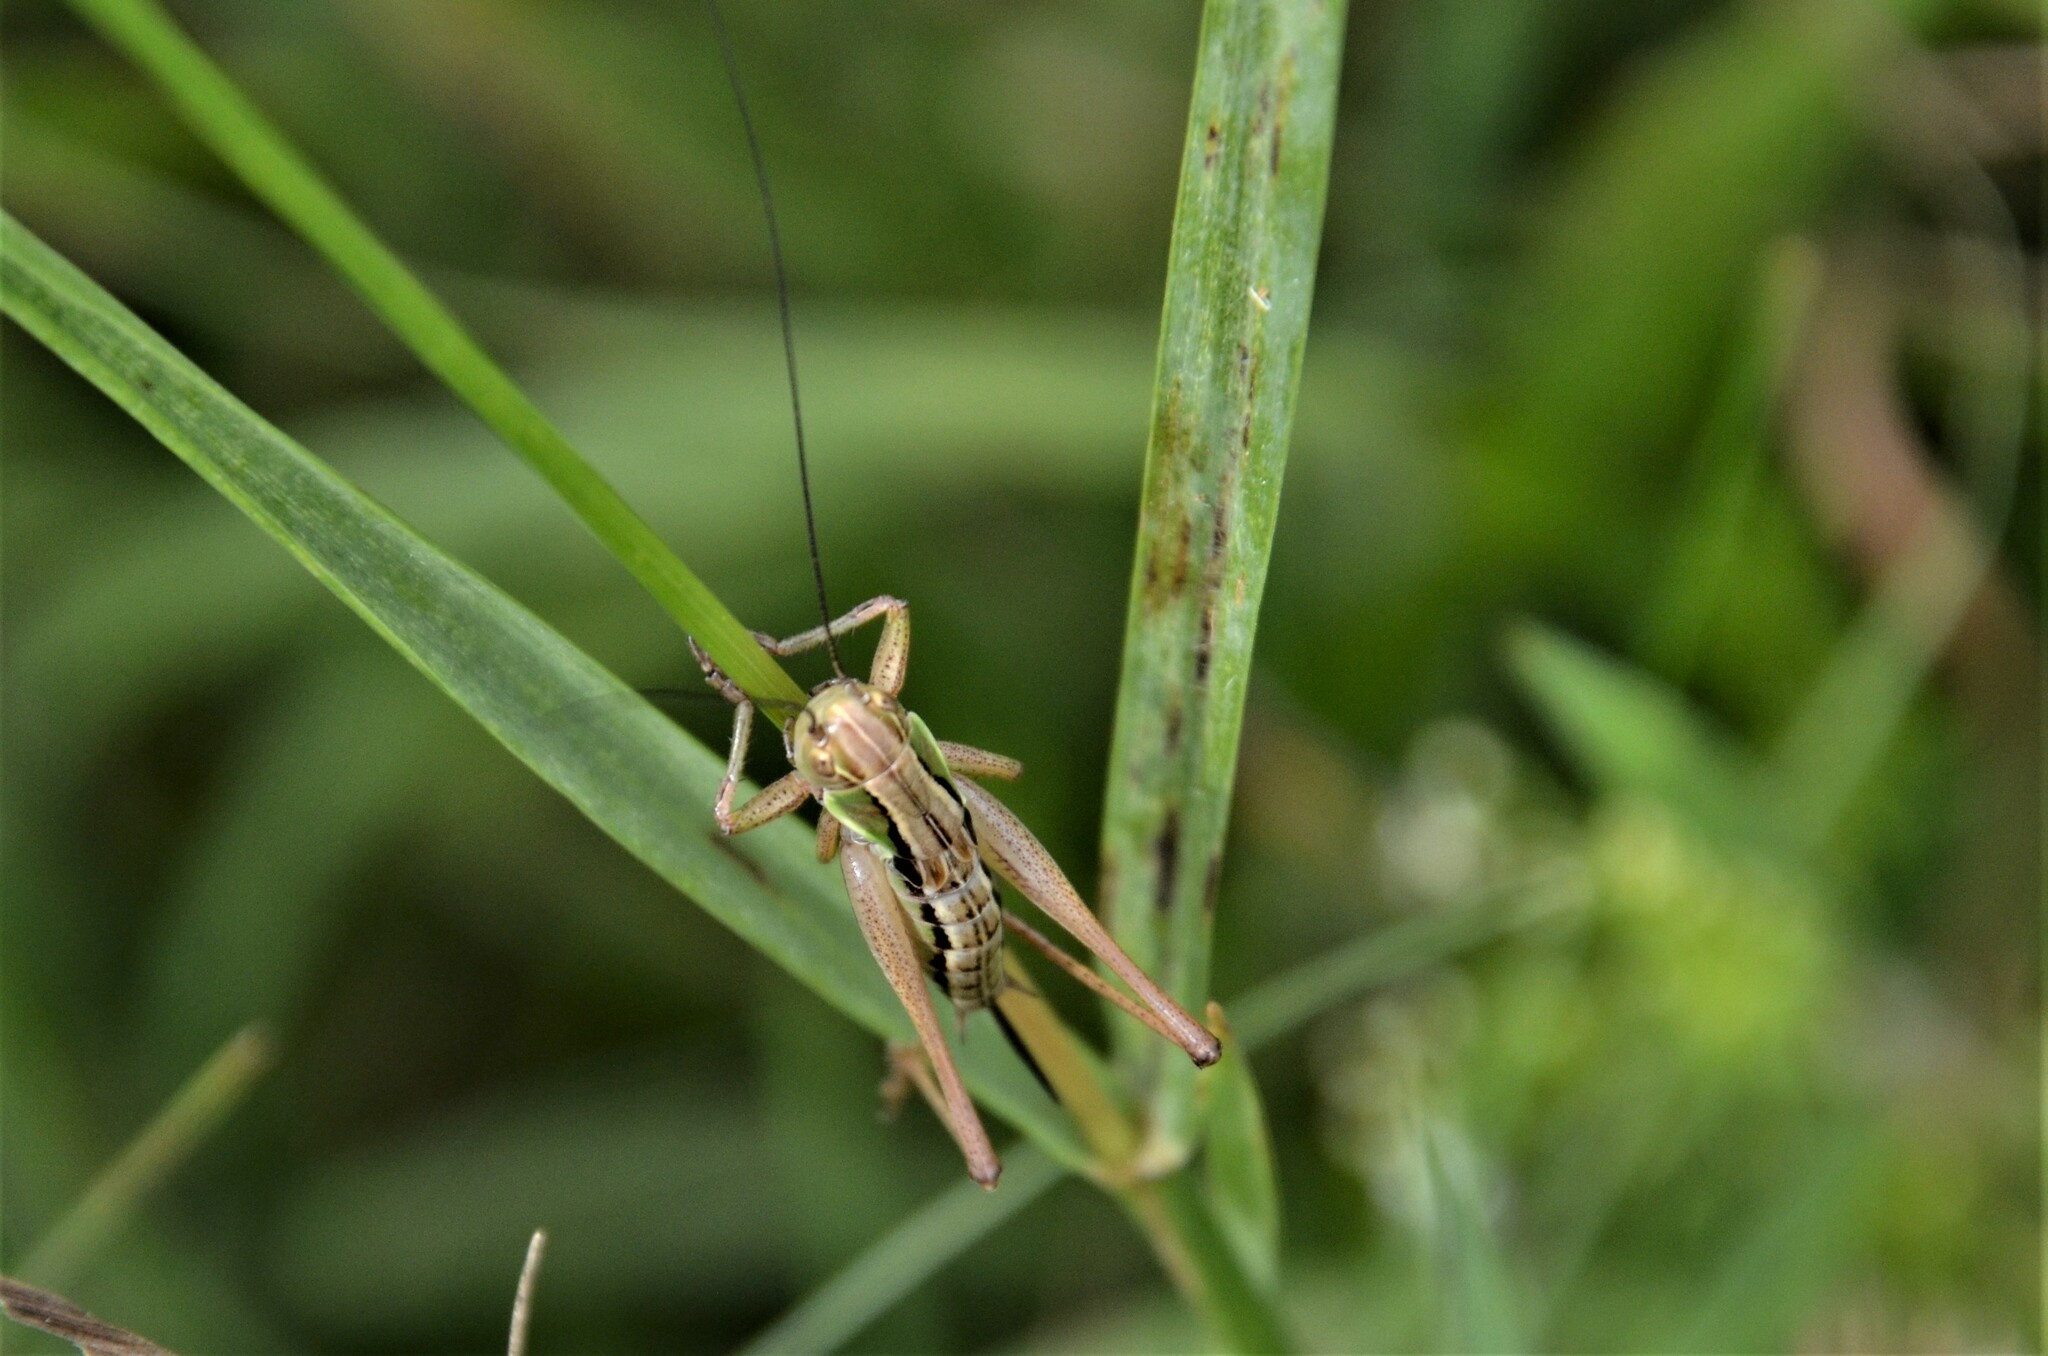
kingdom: Animalia
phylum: Arthropoda
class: Insecta
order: Orthoptera
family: Tettigoniidae
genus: Roeseliana
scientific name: Roeseliana roeselii
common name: Roesel's bush cricket
